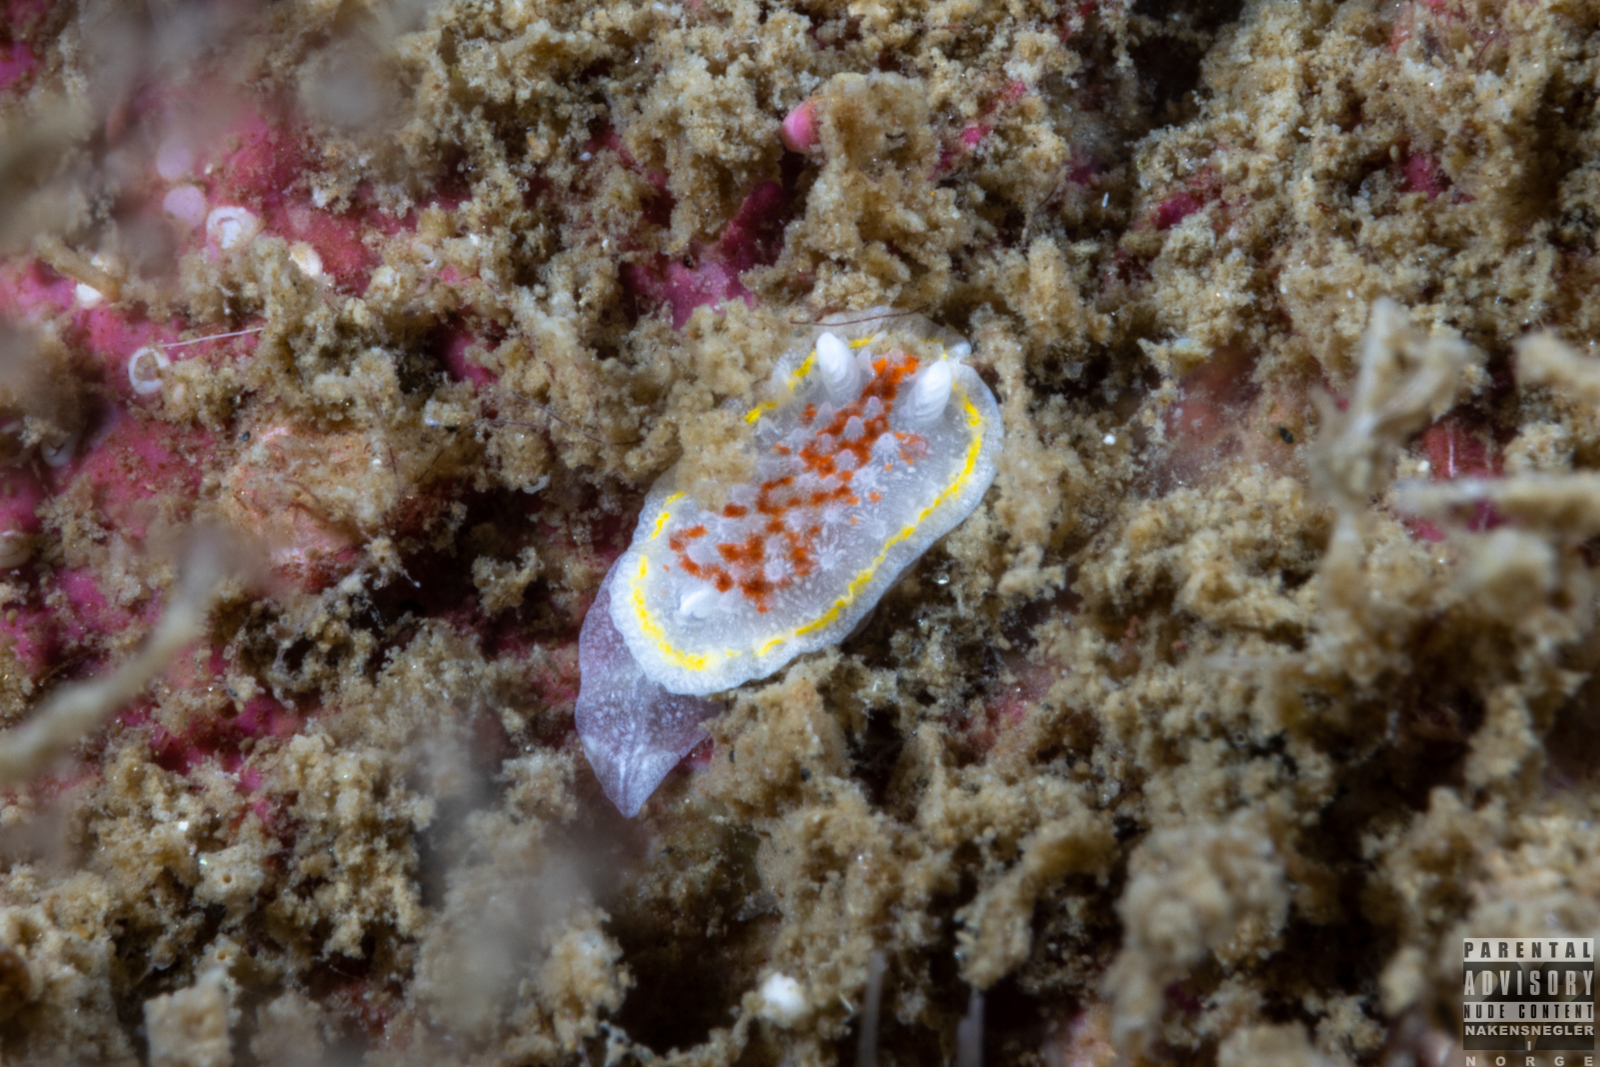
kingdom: Animalia
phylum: Mollusca
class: Gastropoda
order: Nudibranchia
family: Calycidorididae
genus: Diaphorodoris
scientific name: Diaphorodoris luteocincta
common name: Fried egg nudibranch
